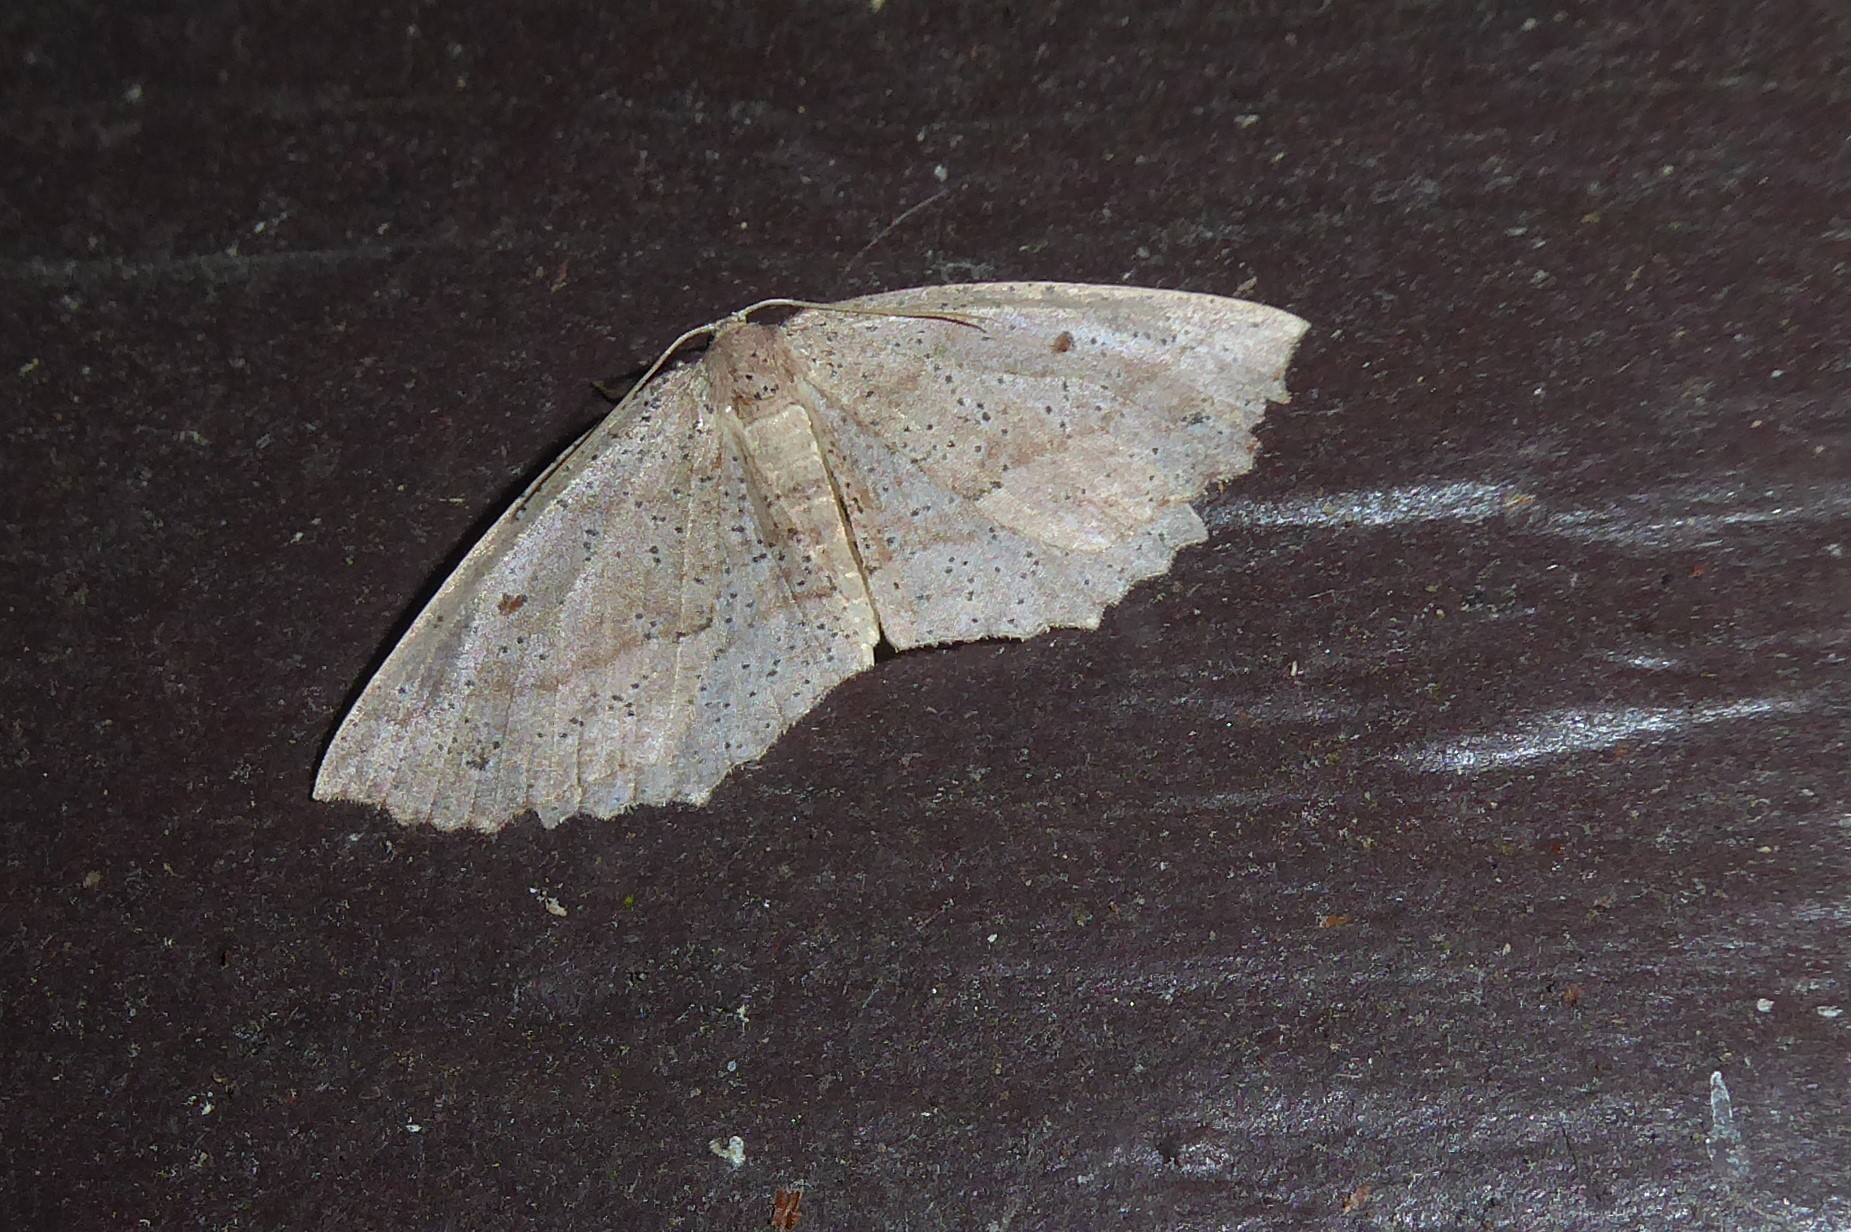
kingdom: Animalia
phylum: Arthropoda
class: Insecta
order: Lepidoptera
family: Geometridae
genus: Xyridacma
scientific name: Xyridacma veronicae
